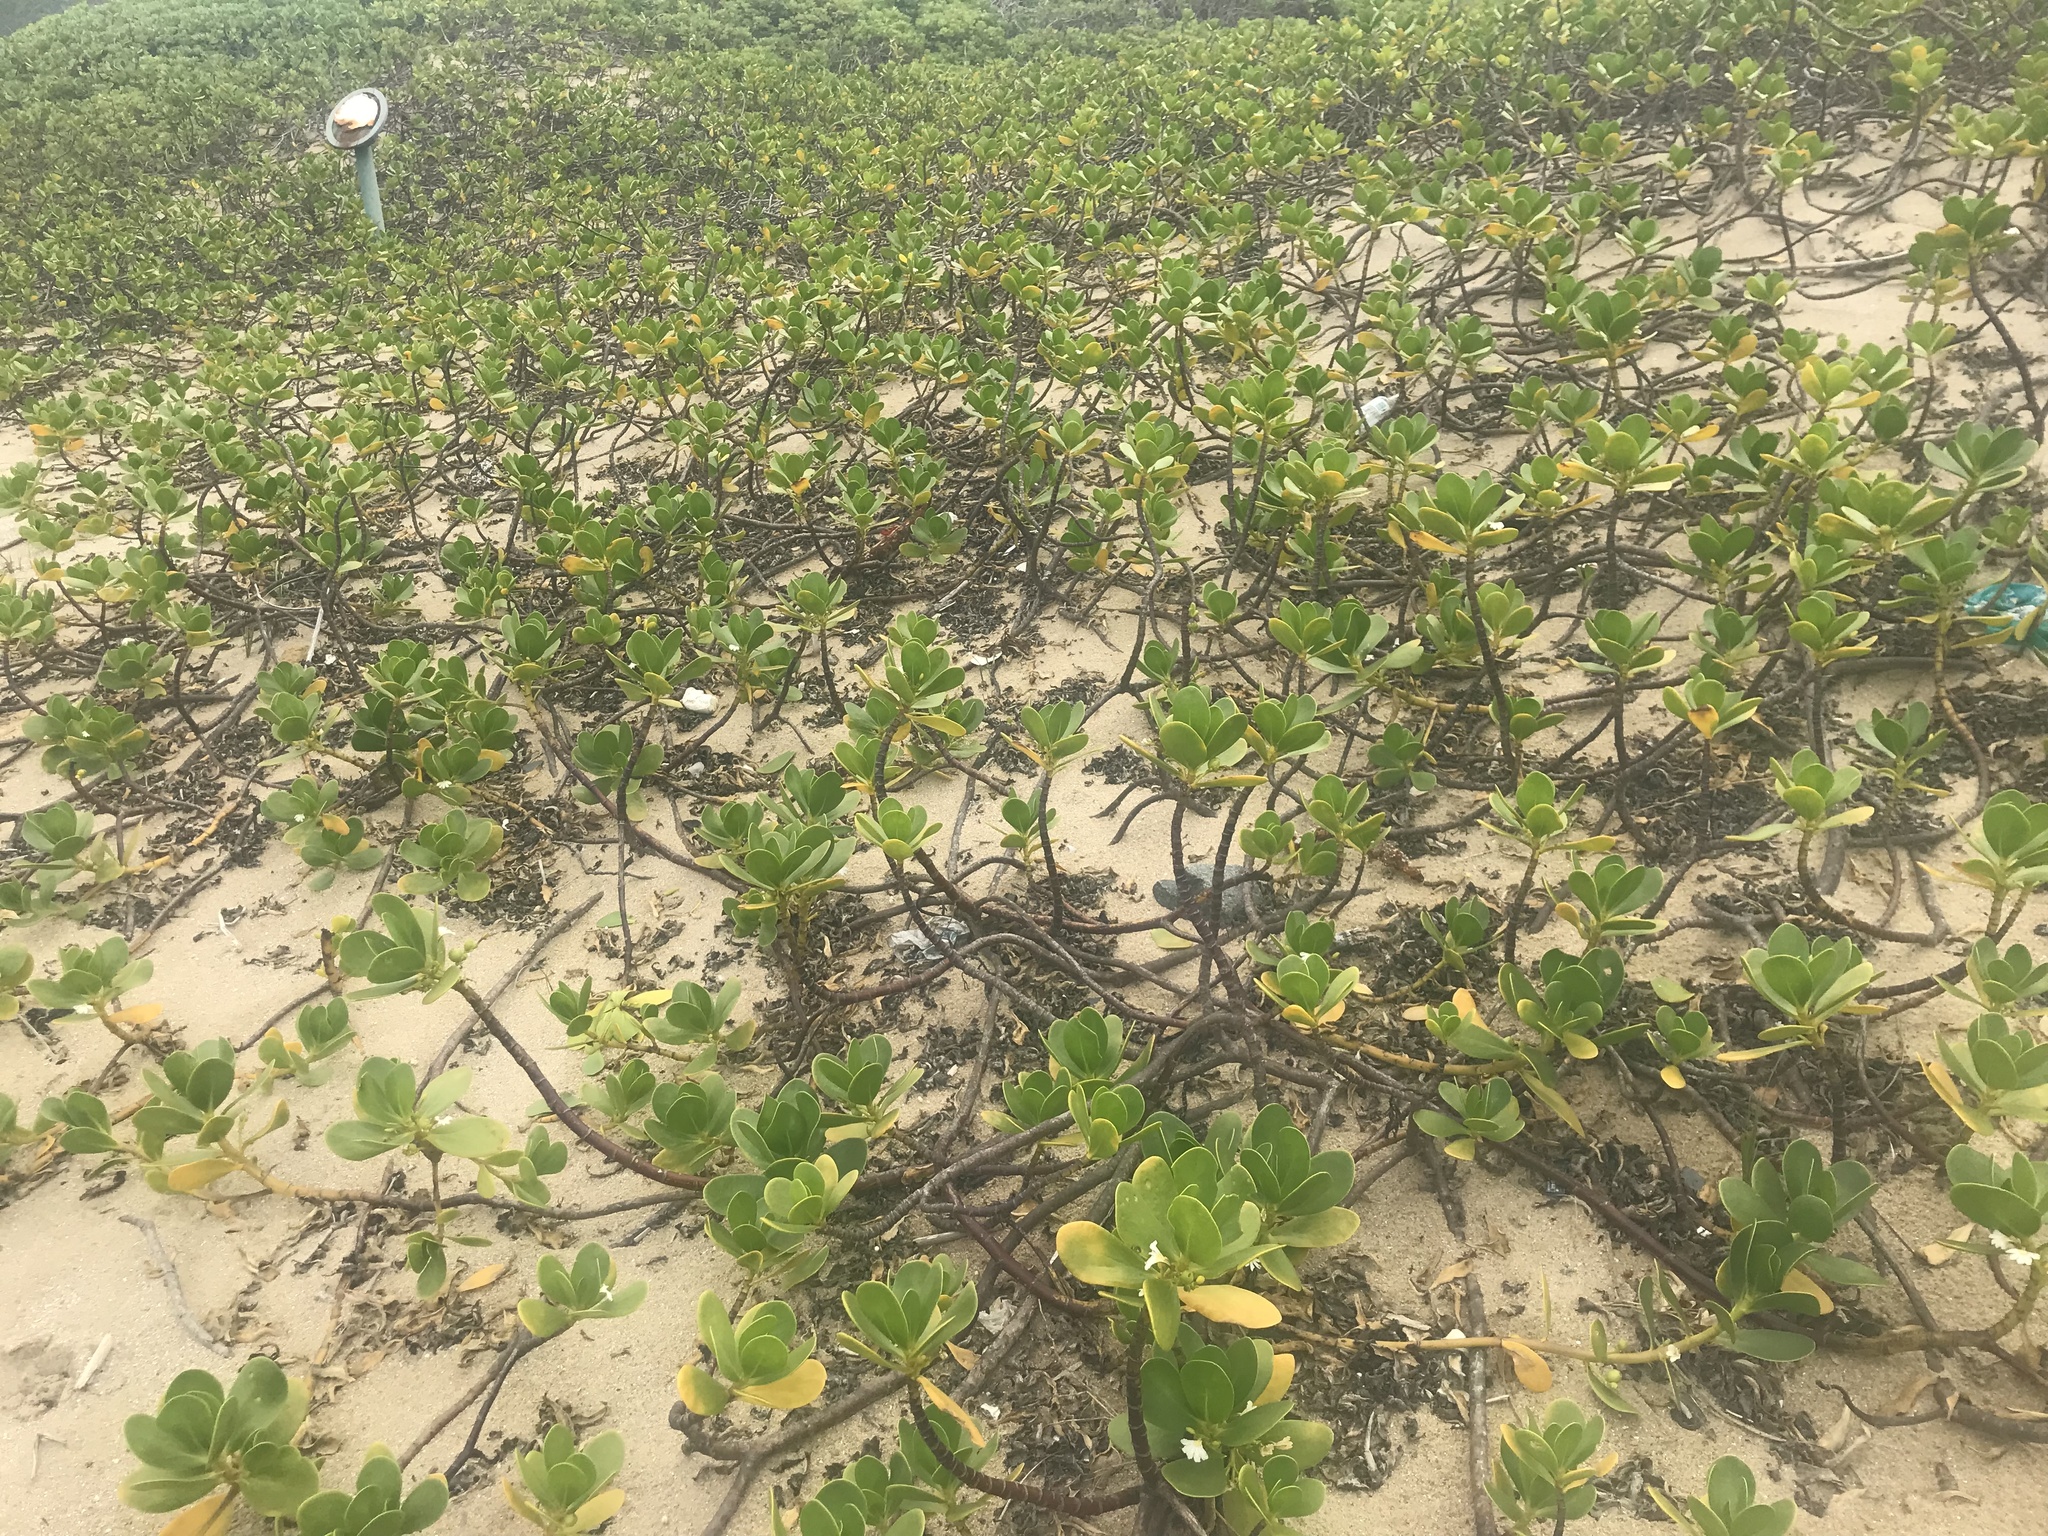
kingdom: Plantae
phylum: Tracheophyta
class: Magnoliopsida
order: Asterales
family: Goodeniaceae
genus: Scaevola
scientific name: Scaevola plumieri
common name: Gull feed
